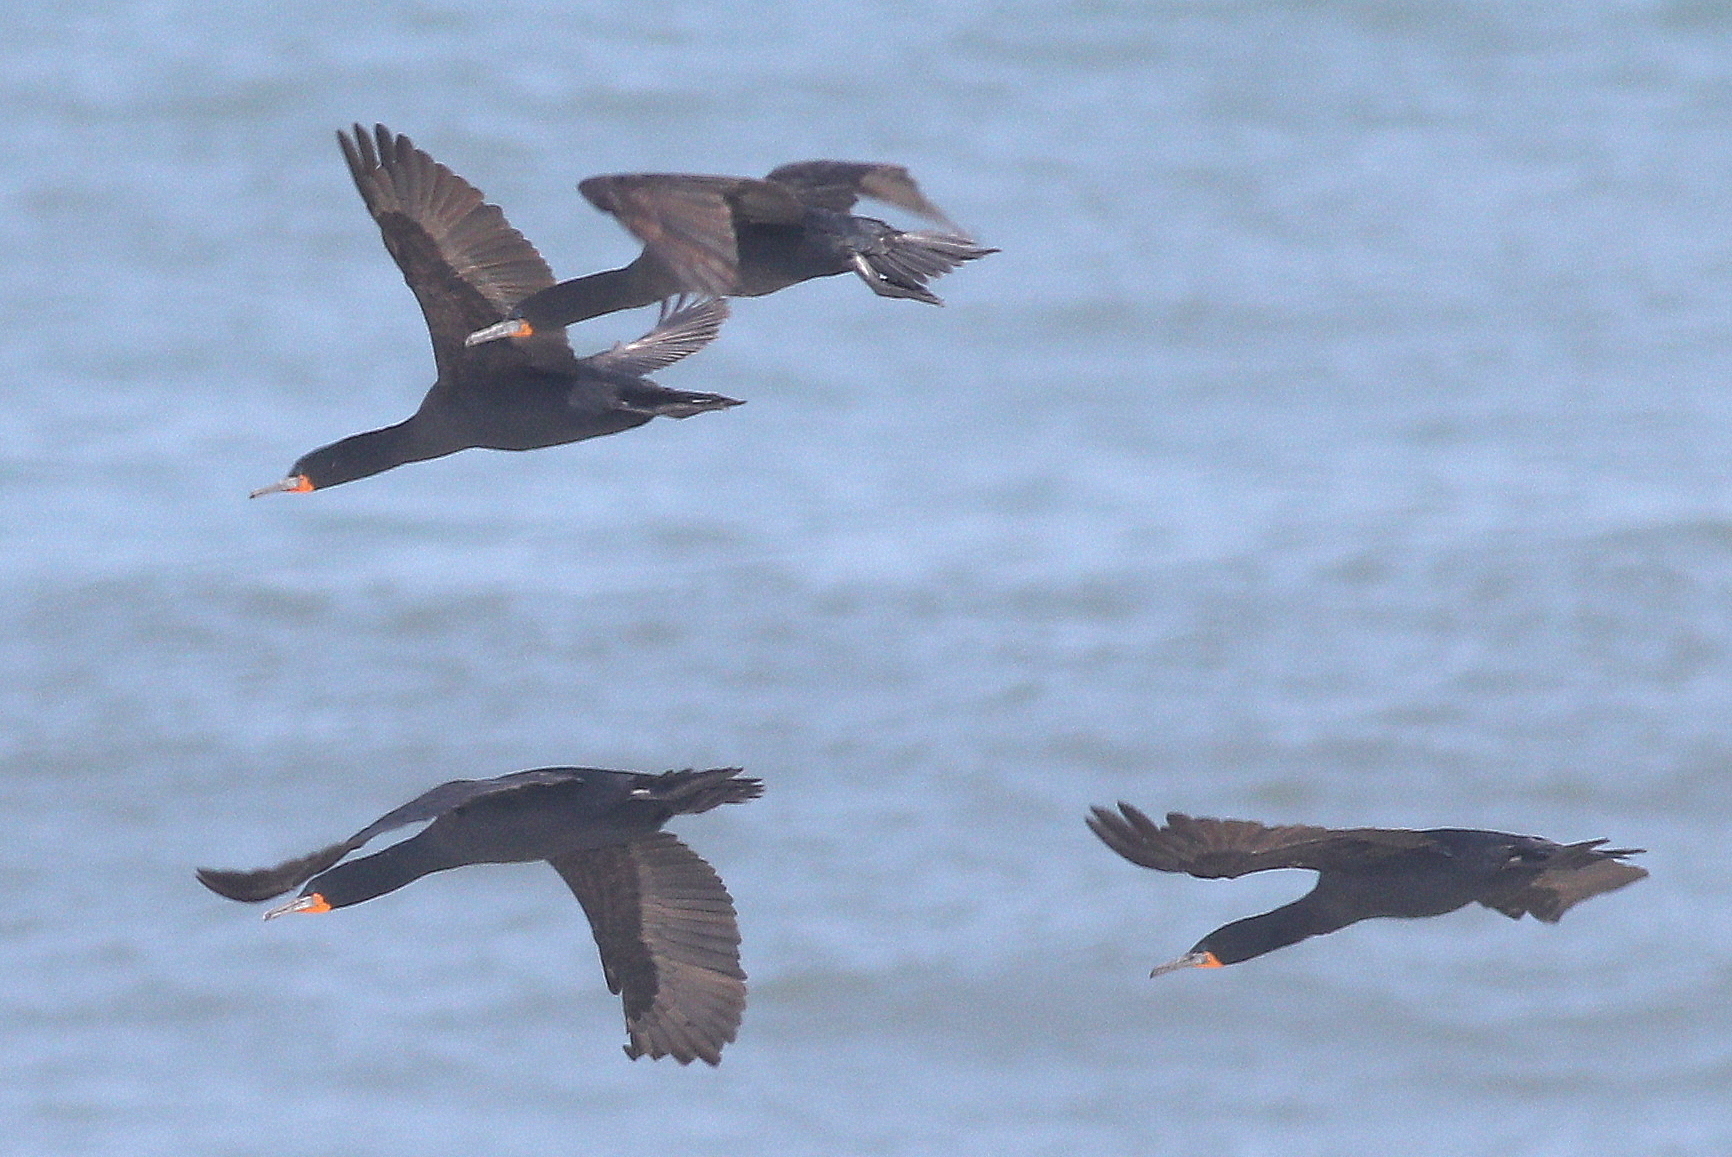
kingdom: Animalia
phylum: Chordata
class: Aves
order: Suliformes
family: Phalacrocoracidae
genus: Phalacrocorax
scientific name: Phalacrocorax capensis
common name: Cape cormorant
